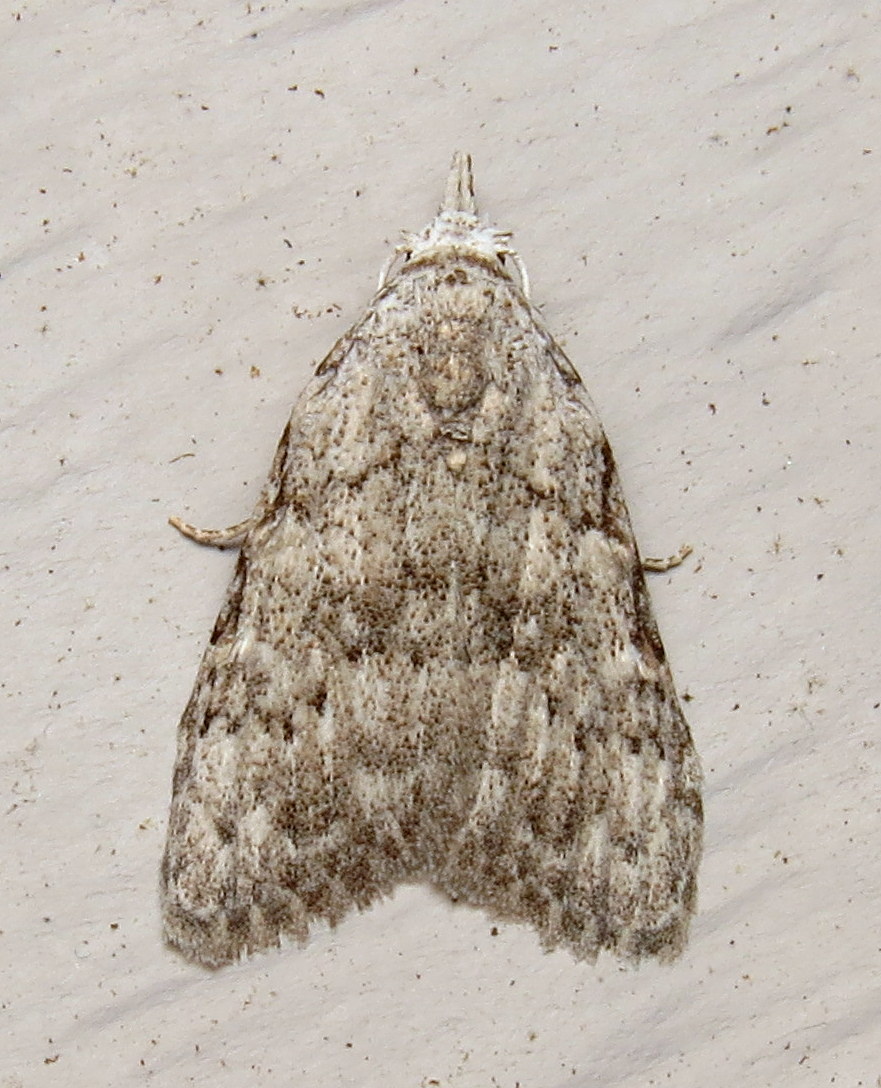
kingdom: Animalia
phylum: Arthropoda
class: Insecta
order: Lepidoptera
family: Nolidae
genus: Nola
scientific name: Nola clethrae
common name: Sweet pepperbush nola moth
